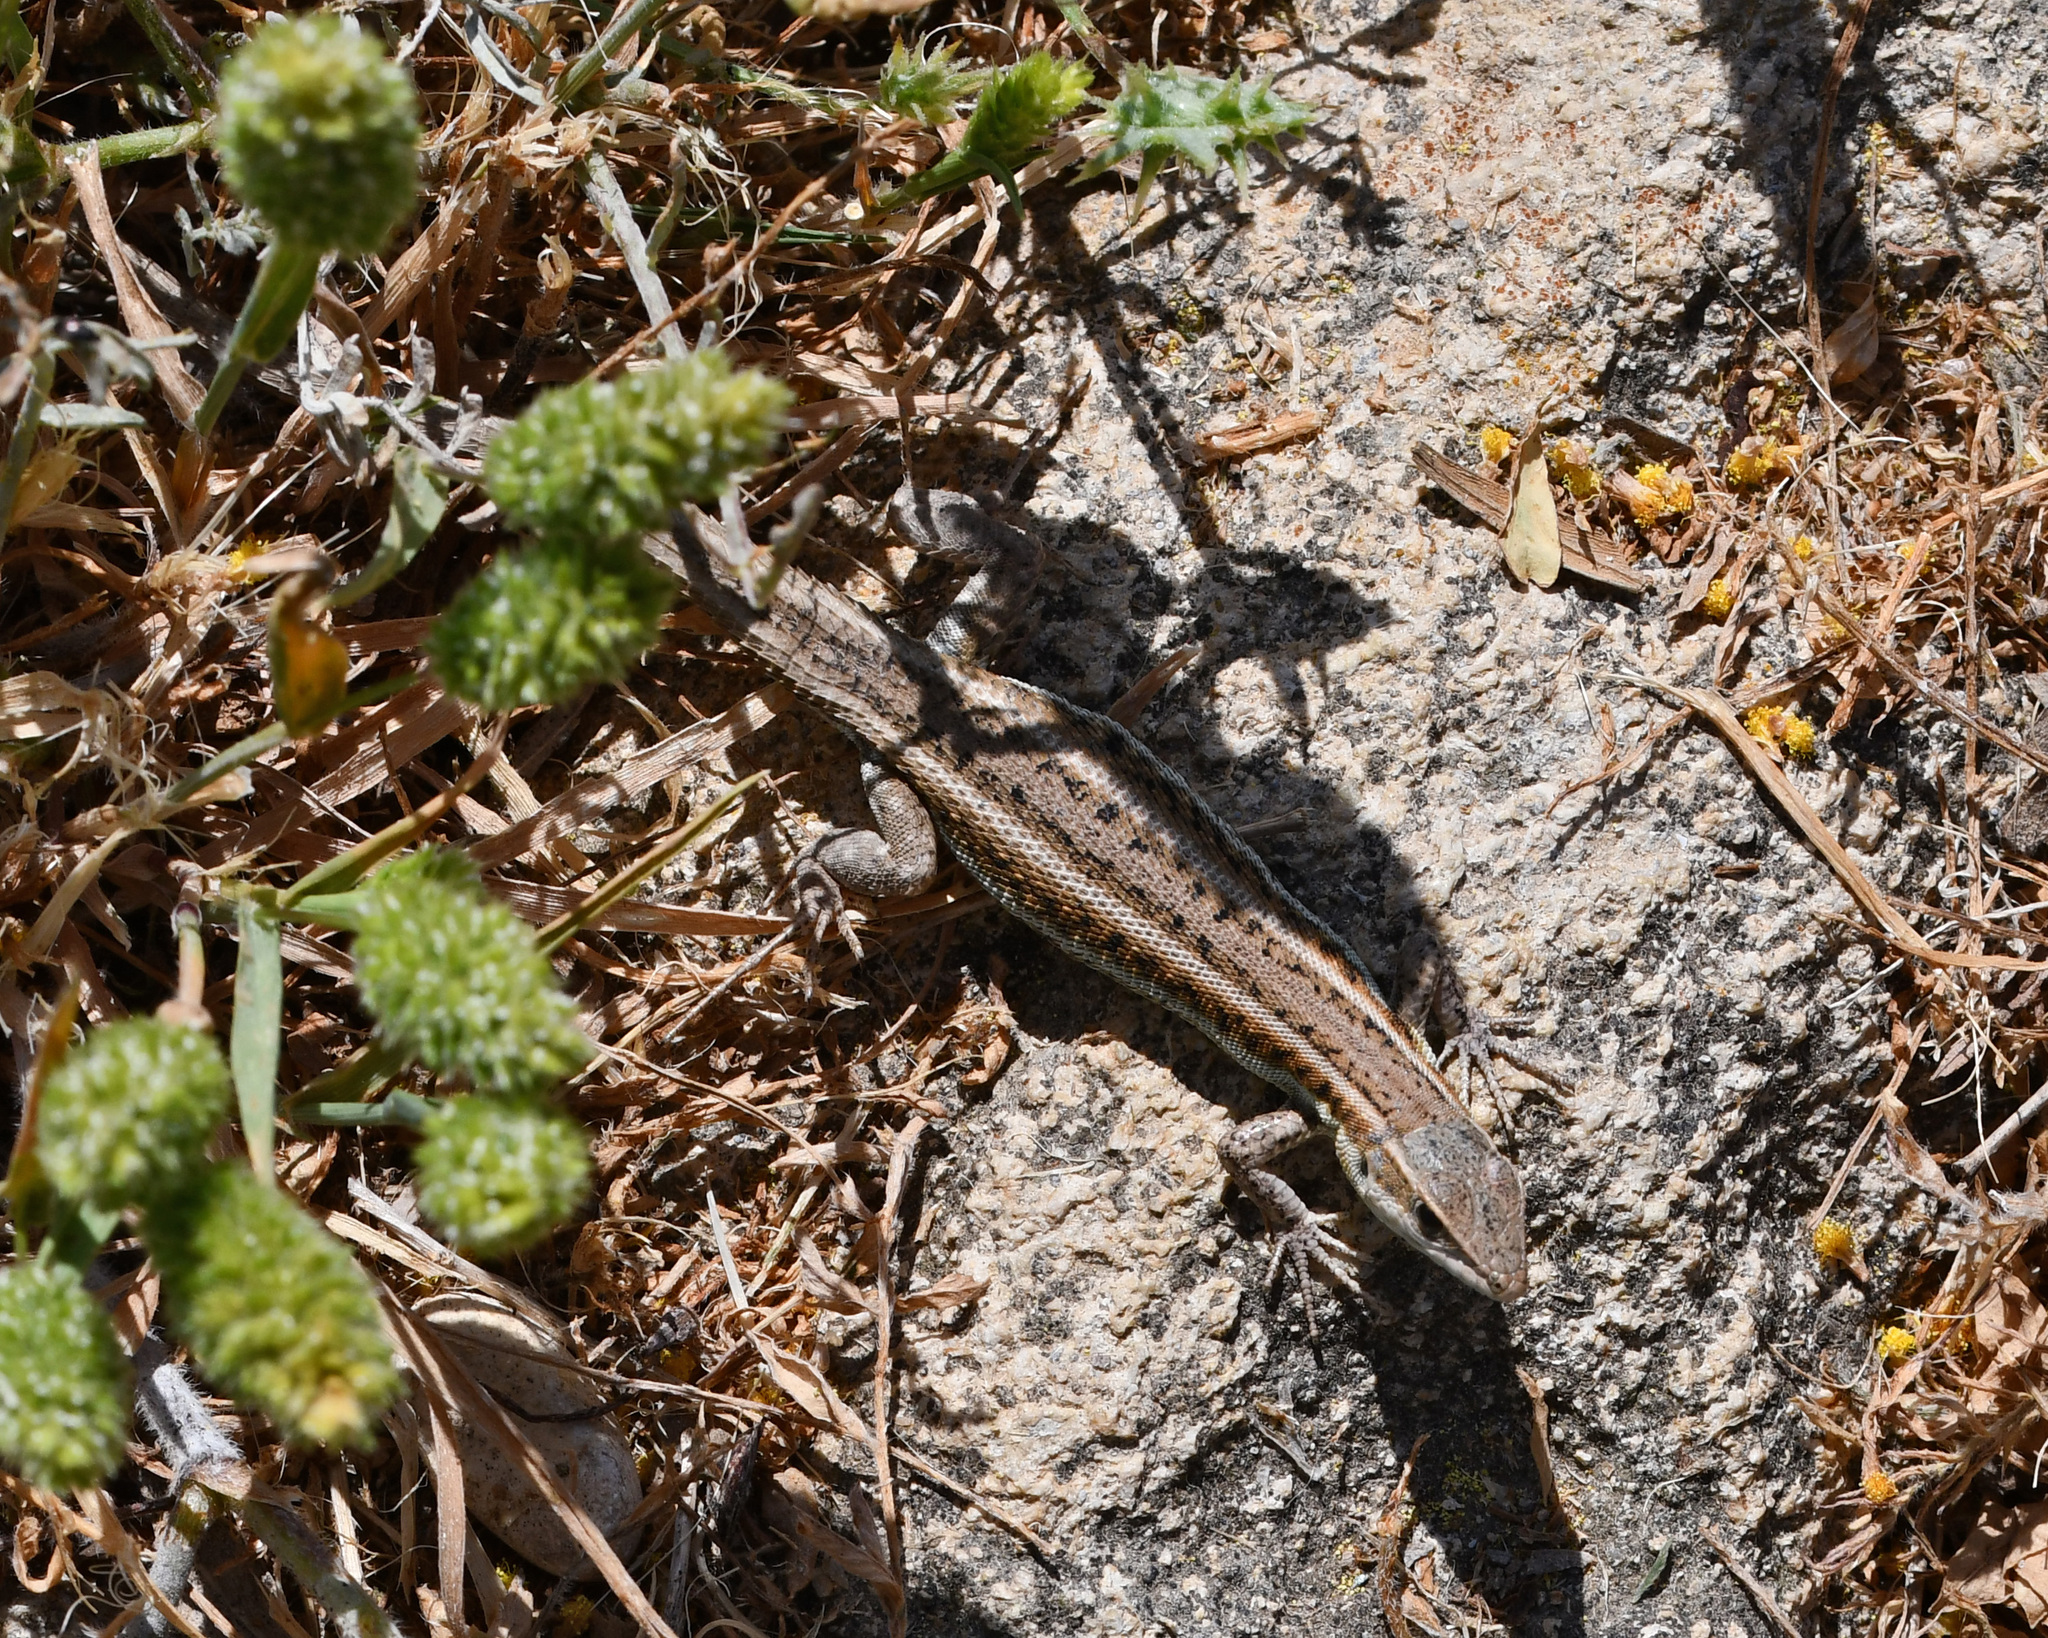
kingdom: Animalia
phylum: Chordata
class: Squamata
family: Lacertidae
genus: Ophisops
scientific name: Ophisops elegans
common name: Snake-eyed lizard
